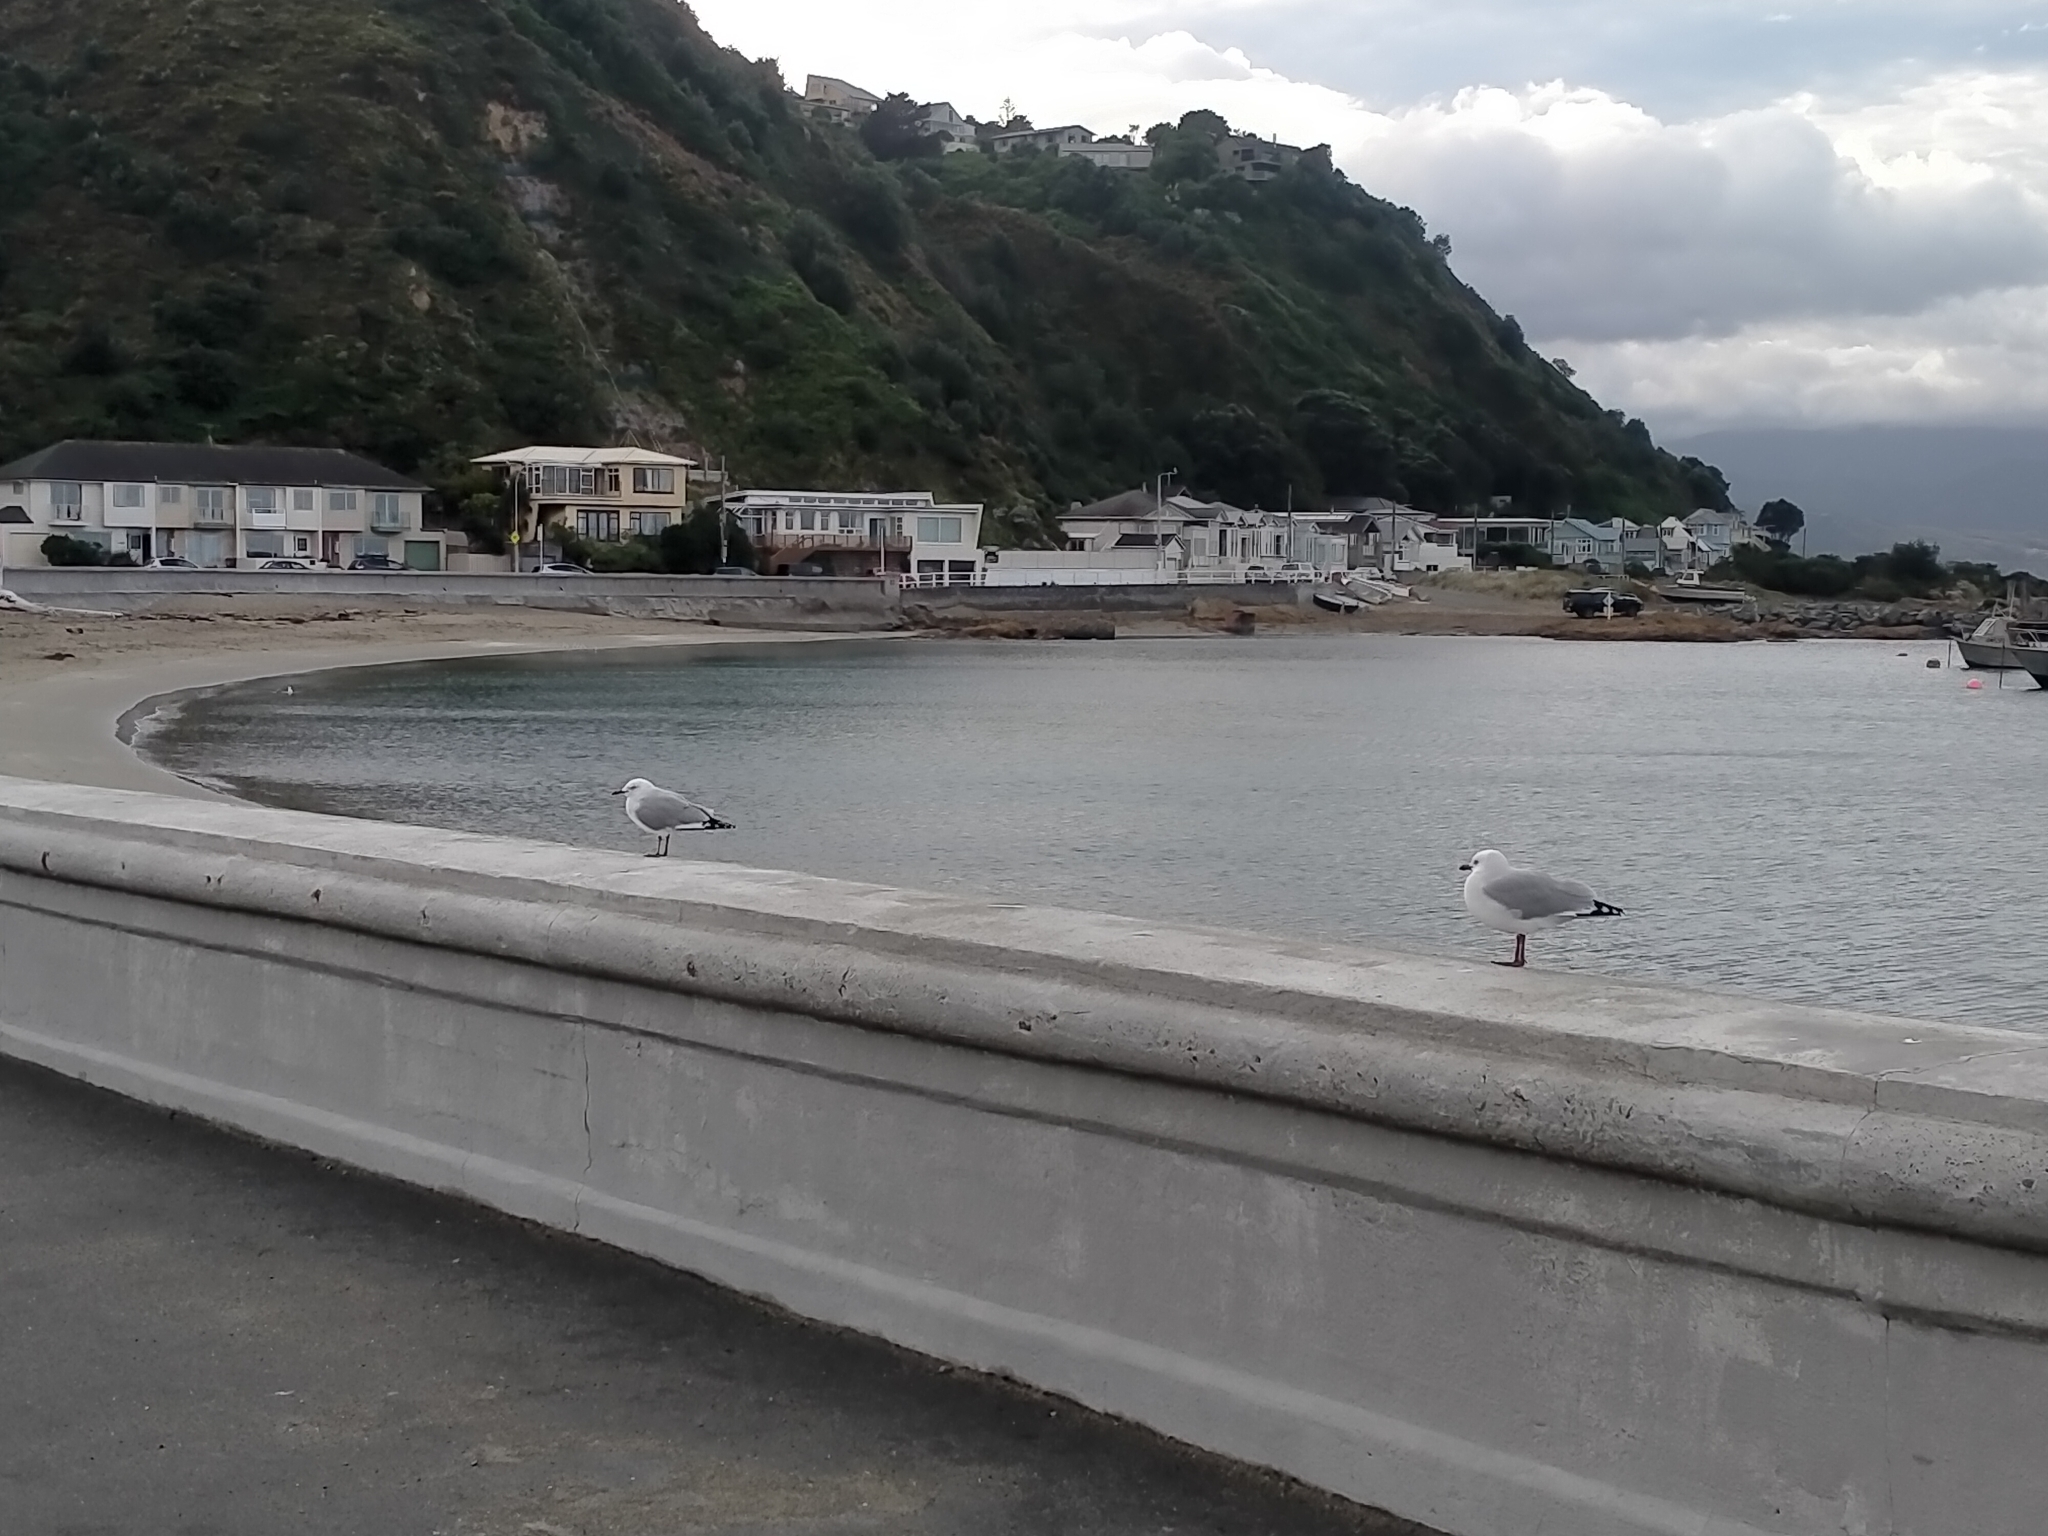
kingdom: Animalia
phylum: Chordata
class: Aves
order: Charadriiformes
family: Laridae
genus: Chroicocephalus
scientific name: Chroicocephalus novaehollandiae
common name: Silver gull
